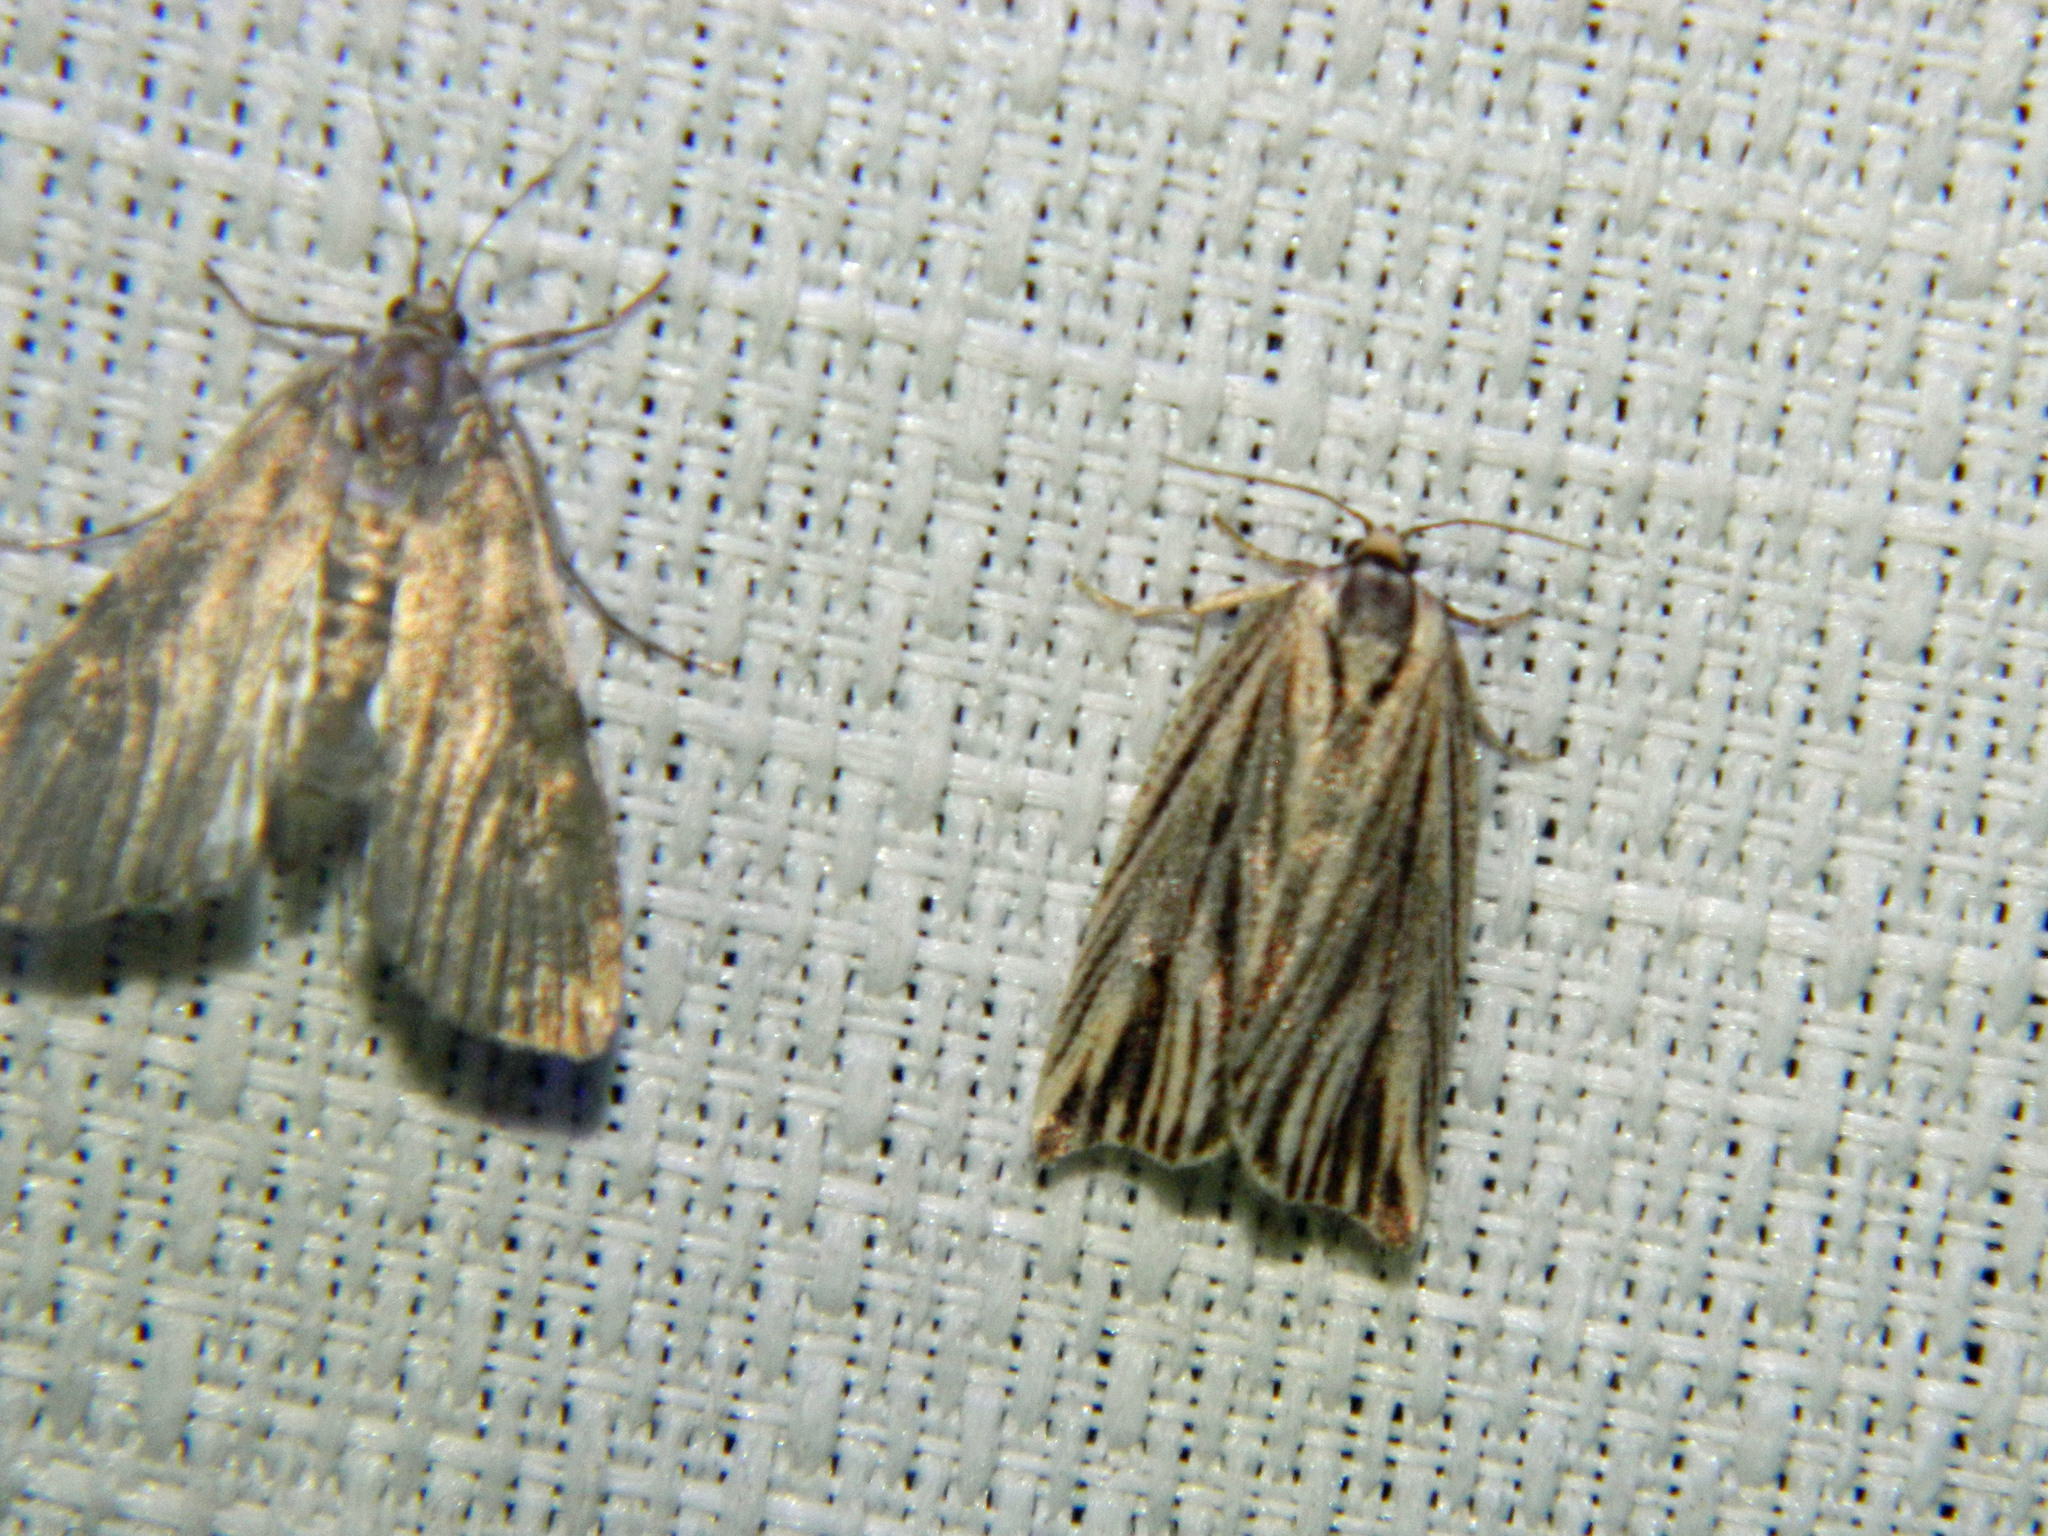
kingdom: Animalia
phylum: Arthropoda
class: Insecta
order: Lepidoptera
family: Tortricidae
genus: Archips
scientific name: Archips strianus
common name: Striated tortrix moth
